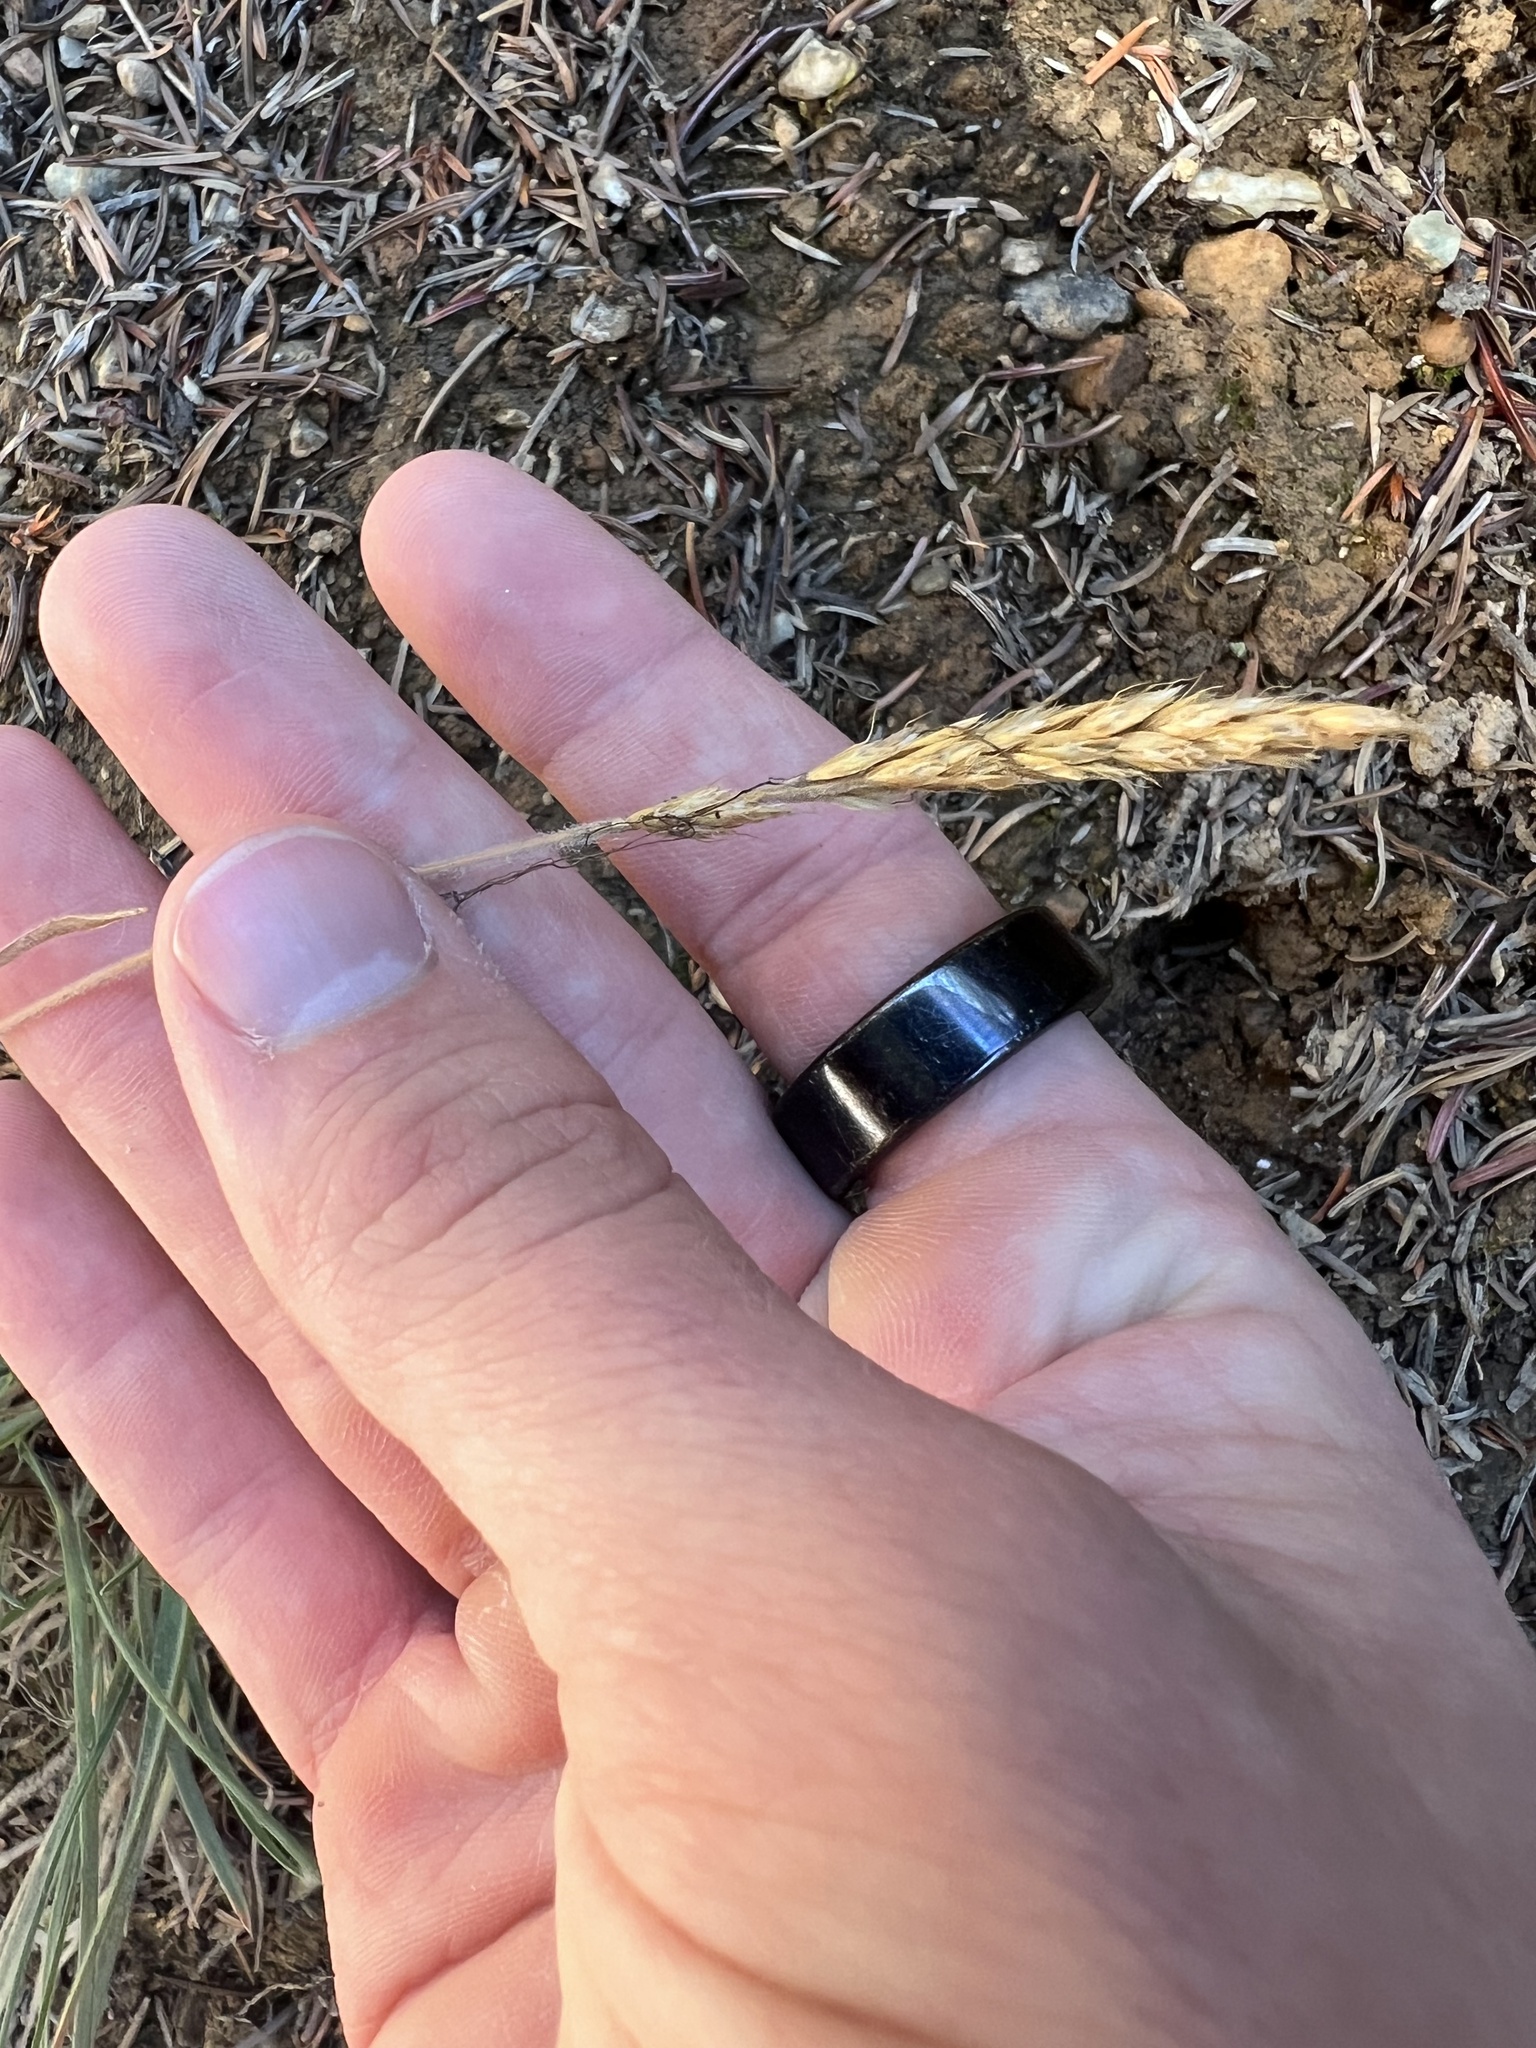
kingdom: Plantae
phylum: Tracheophyta
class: Liliopsida
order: Poales
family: Poaceae
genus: Koeleria
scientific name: Koeleria spicata
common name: Mountain trisetum
